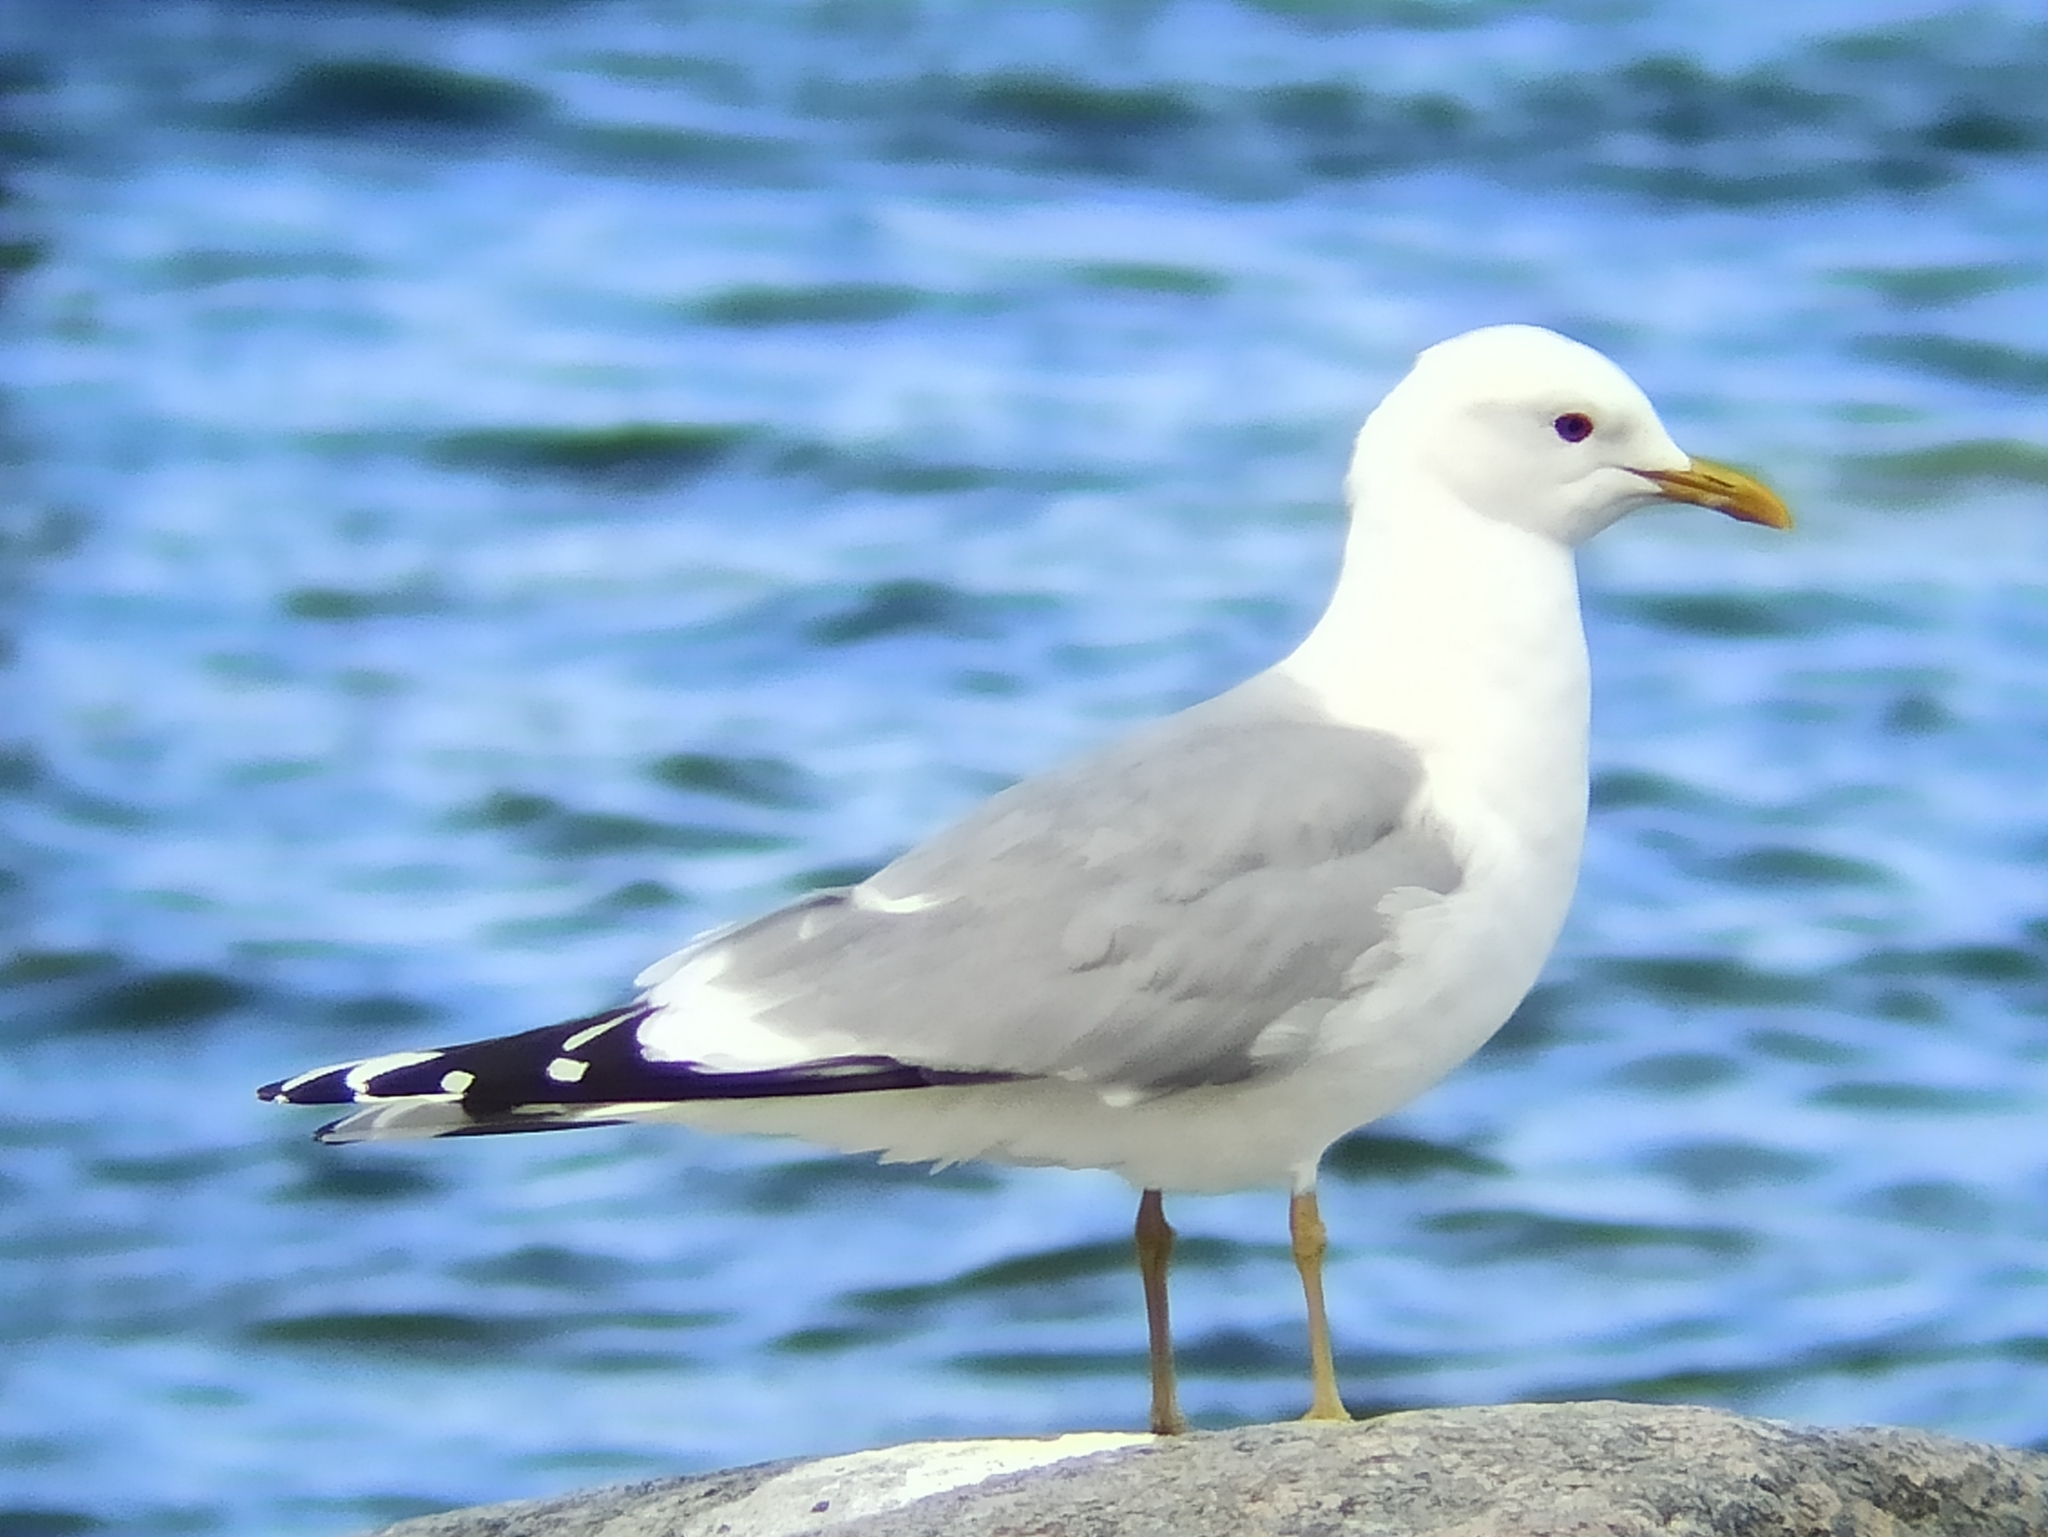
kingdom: Animalia
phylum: Chordata
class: Aves
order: Charadriiformes
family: Laridae
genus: Larus
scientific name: Larus canus
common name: Mew gull
